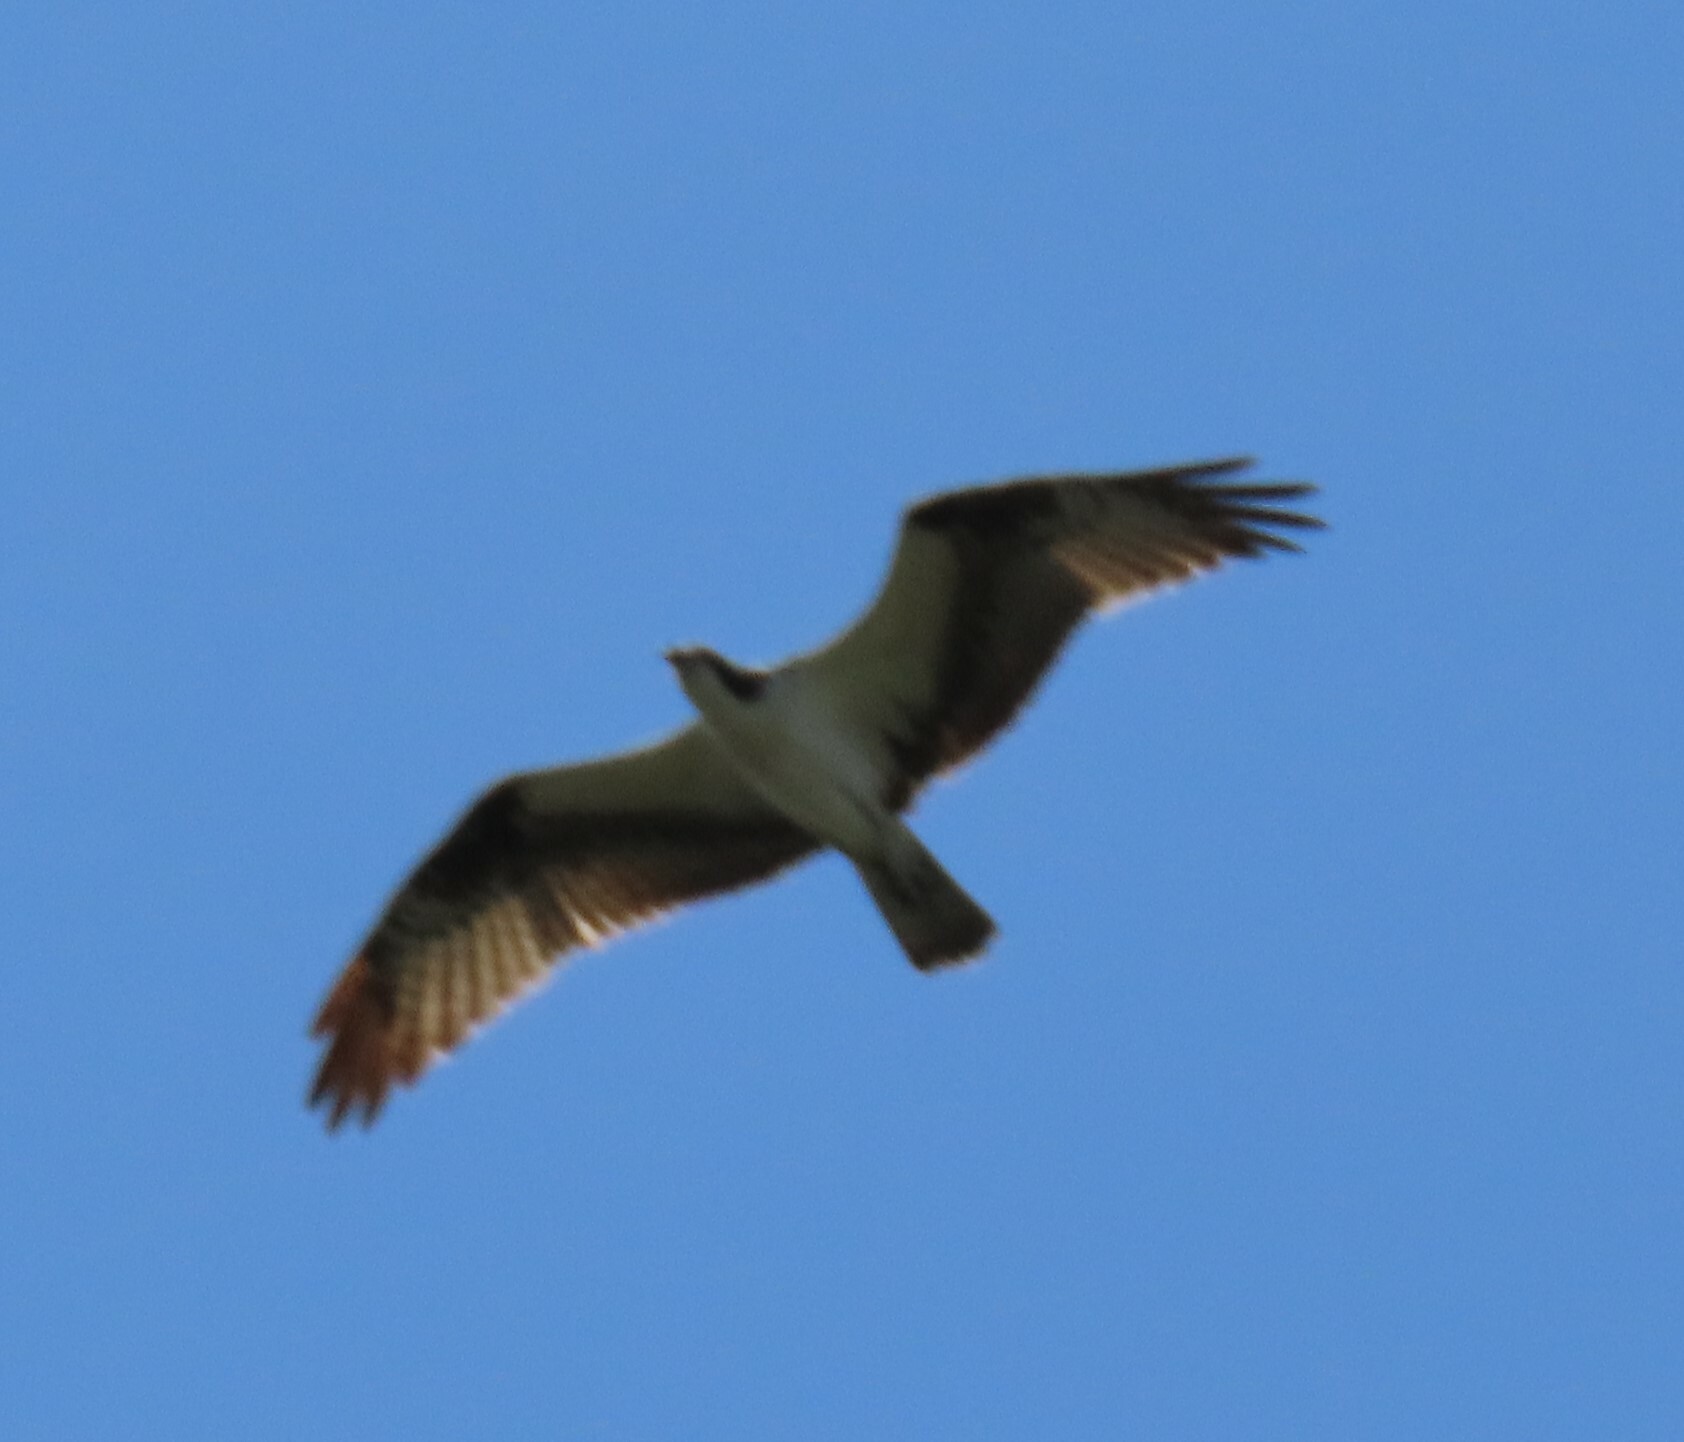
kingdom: Animalia
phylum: Chordata
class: Aves
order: Accipitriformes
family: Pandionidae
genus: Pandion
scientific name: Pandion haliaetus
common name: Osprey
